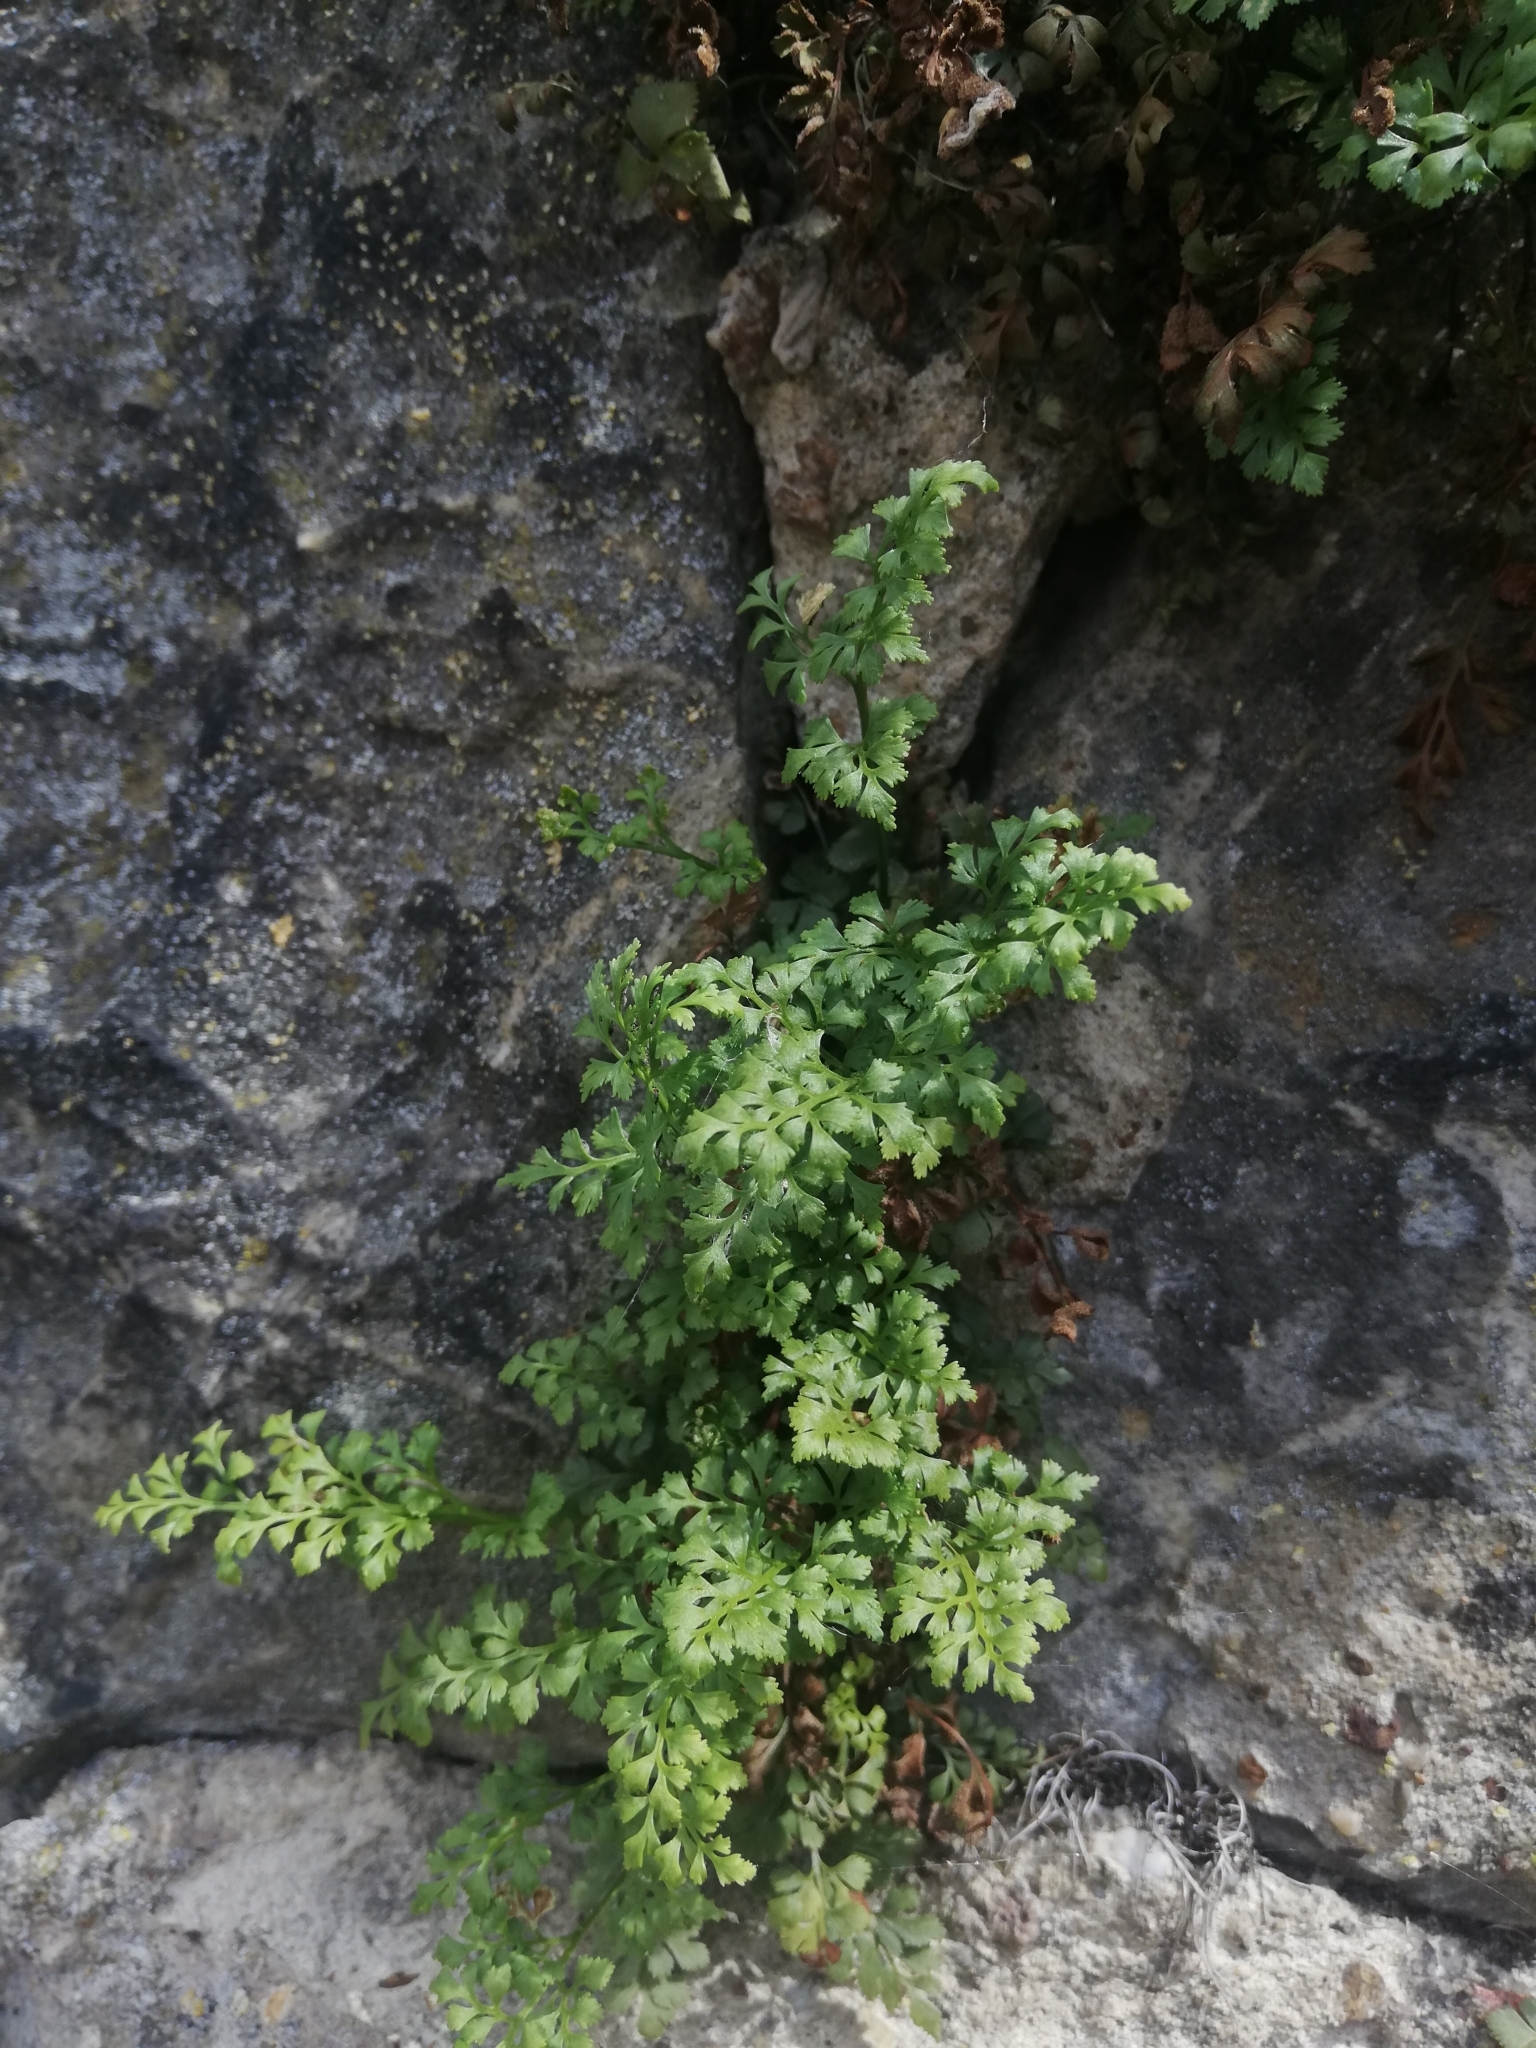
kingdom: Plantae
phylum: Tracheophyta
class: Polypodiopsida
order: Polypodiales
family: Aspleniaceae
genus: Asplenium
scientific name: Asplenium ruta-muraria
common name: Wall-rue
